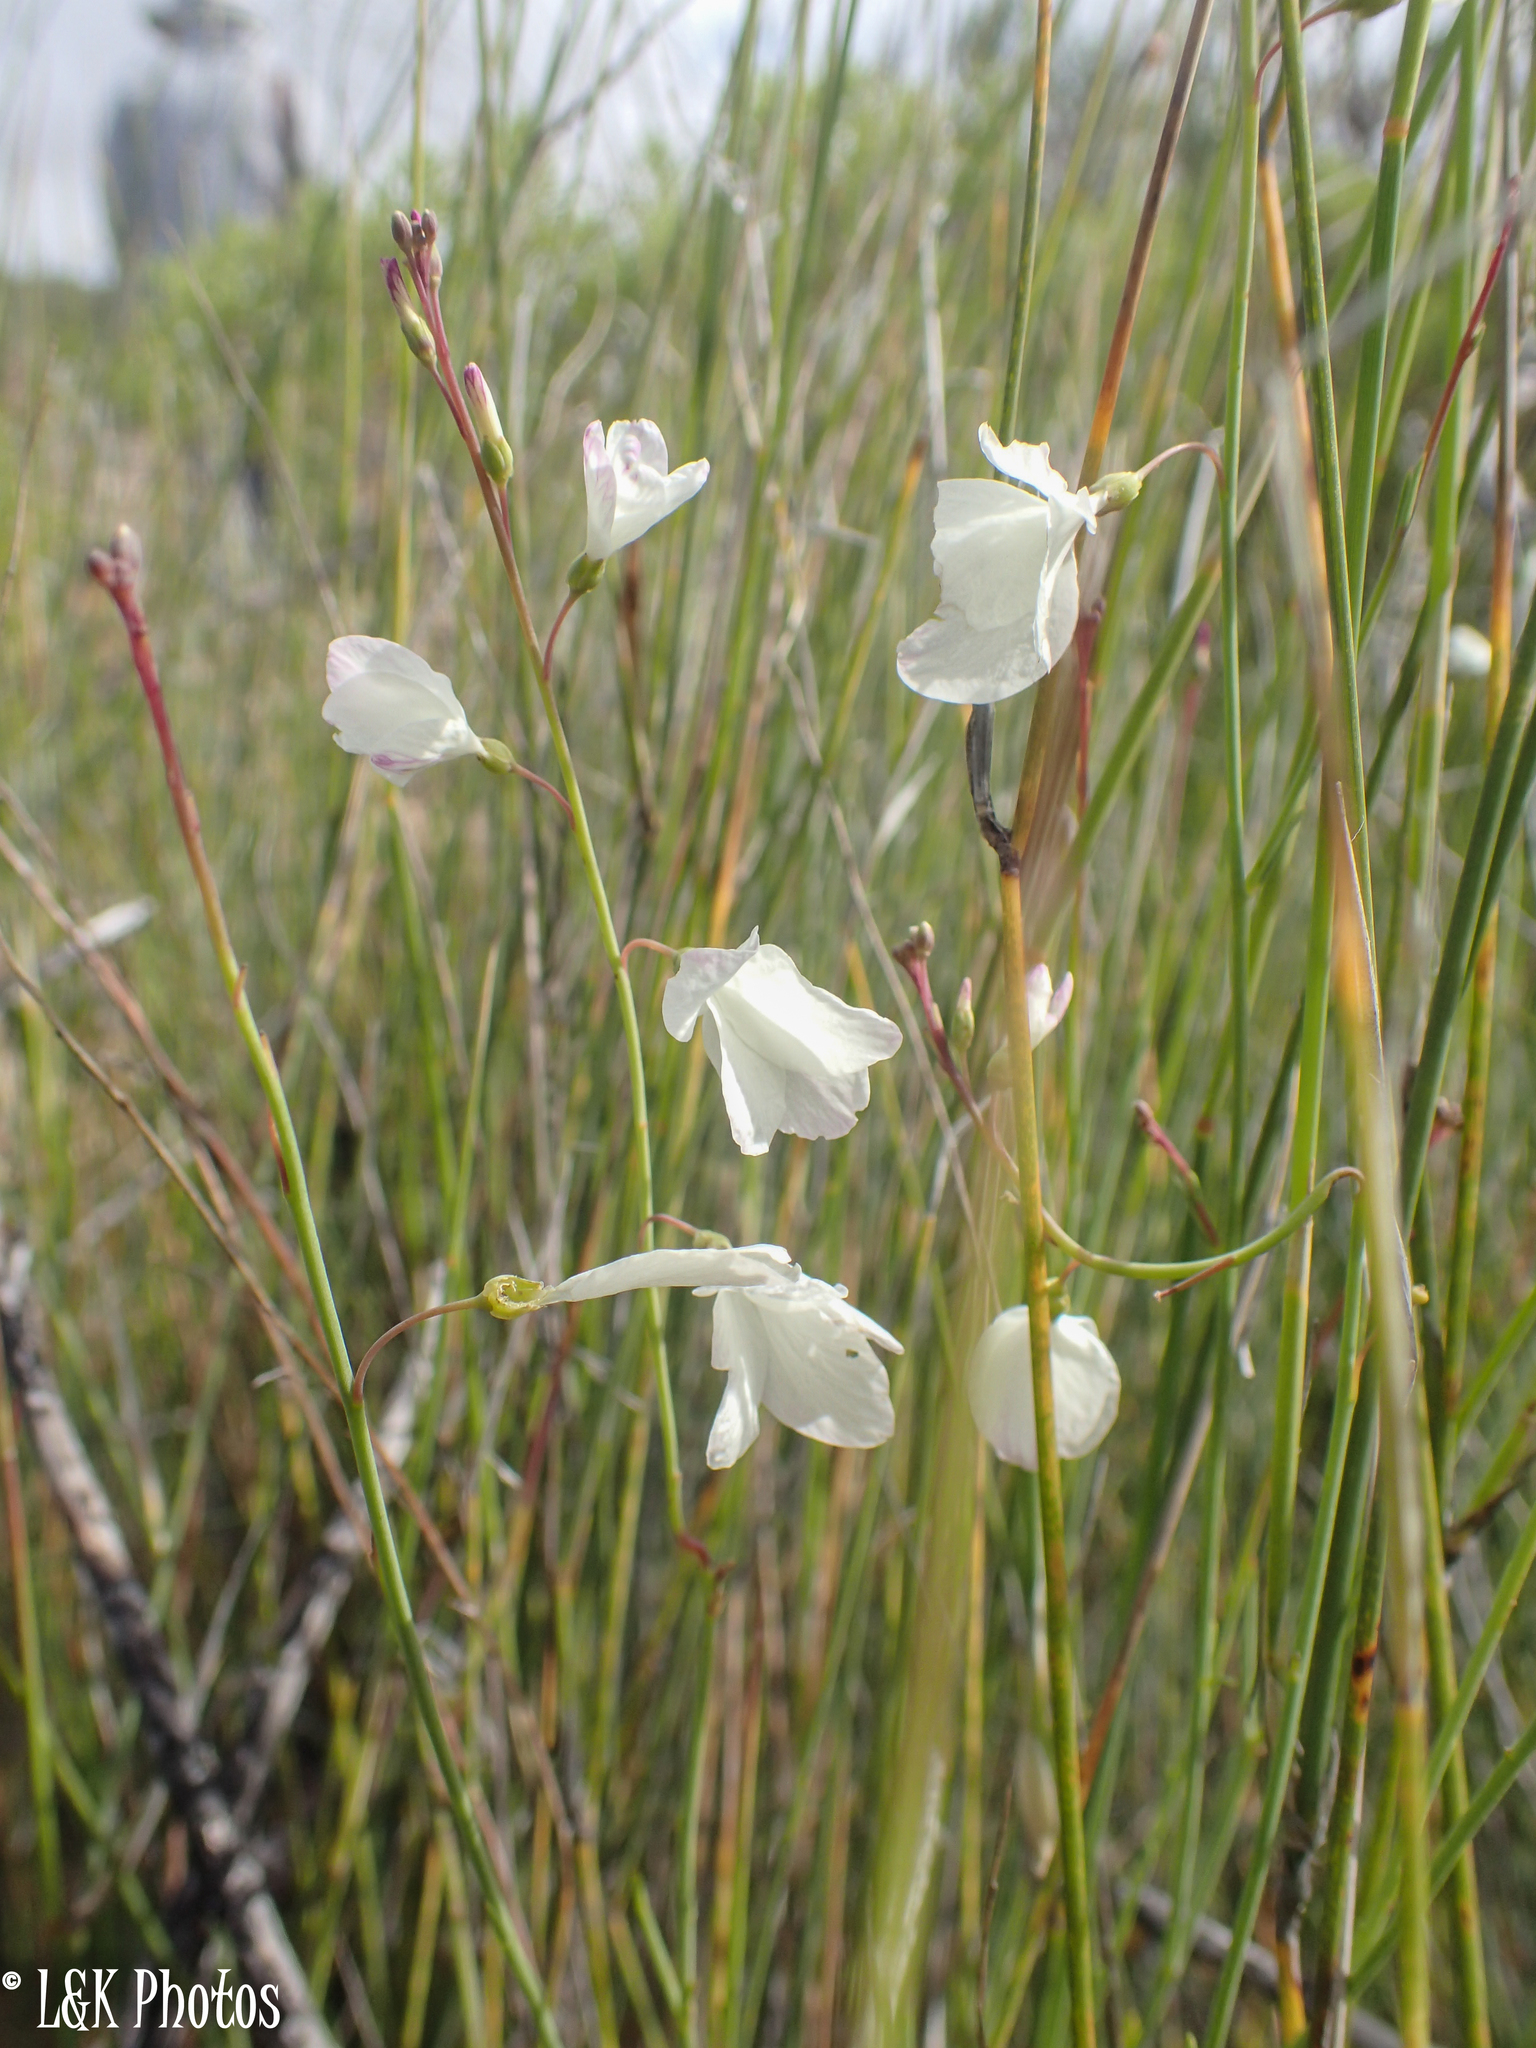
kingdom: Plantae
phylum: Tracheophyta
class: Magnoliopsida
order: Brassicales
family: Brassicaceae
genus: Heliophila
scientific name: Heliophila juncea
